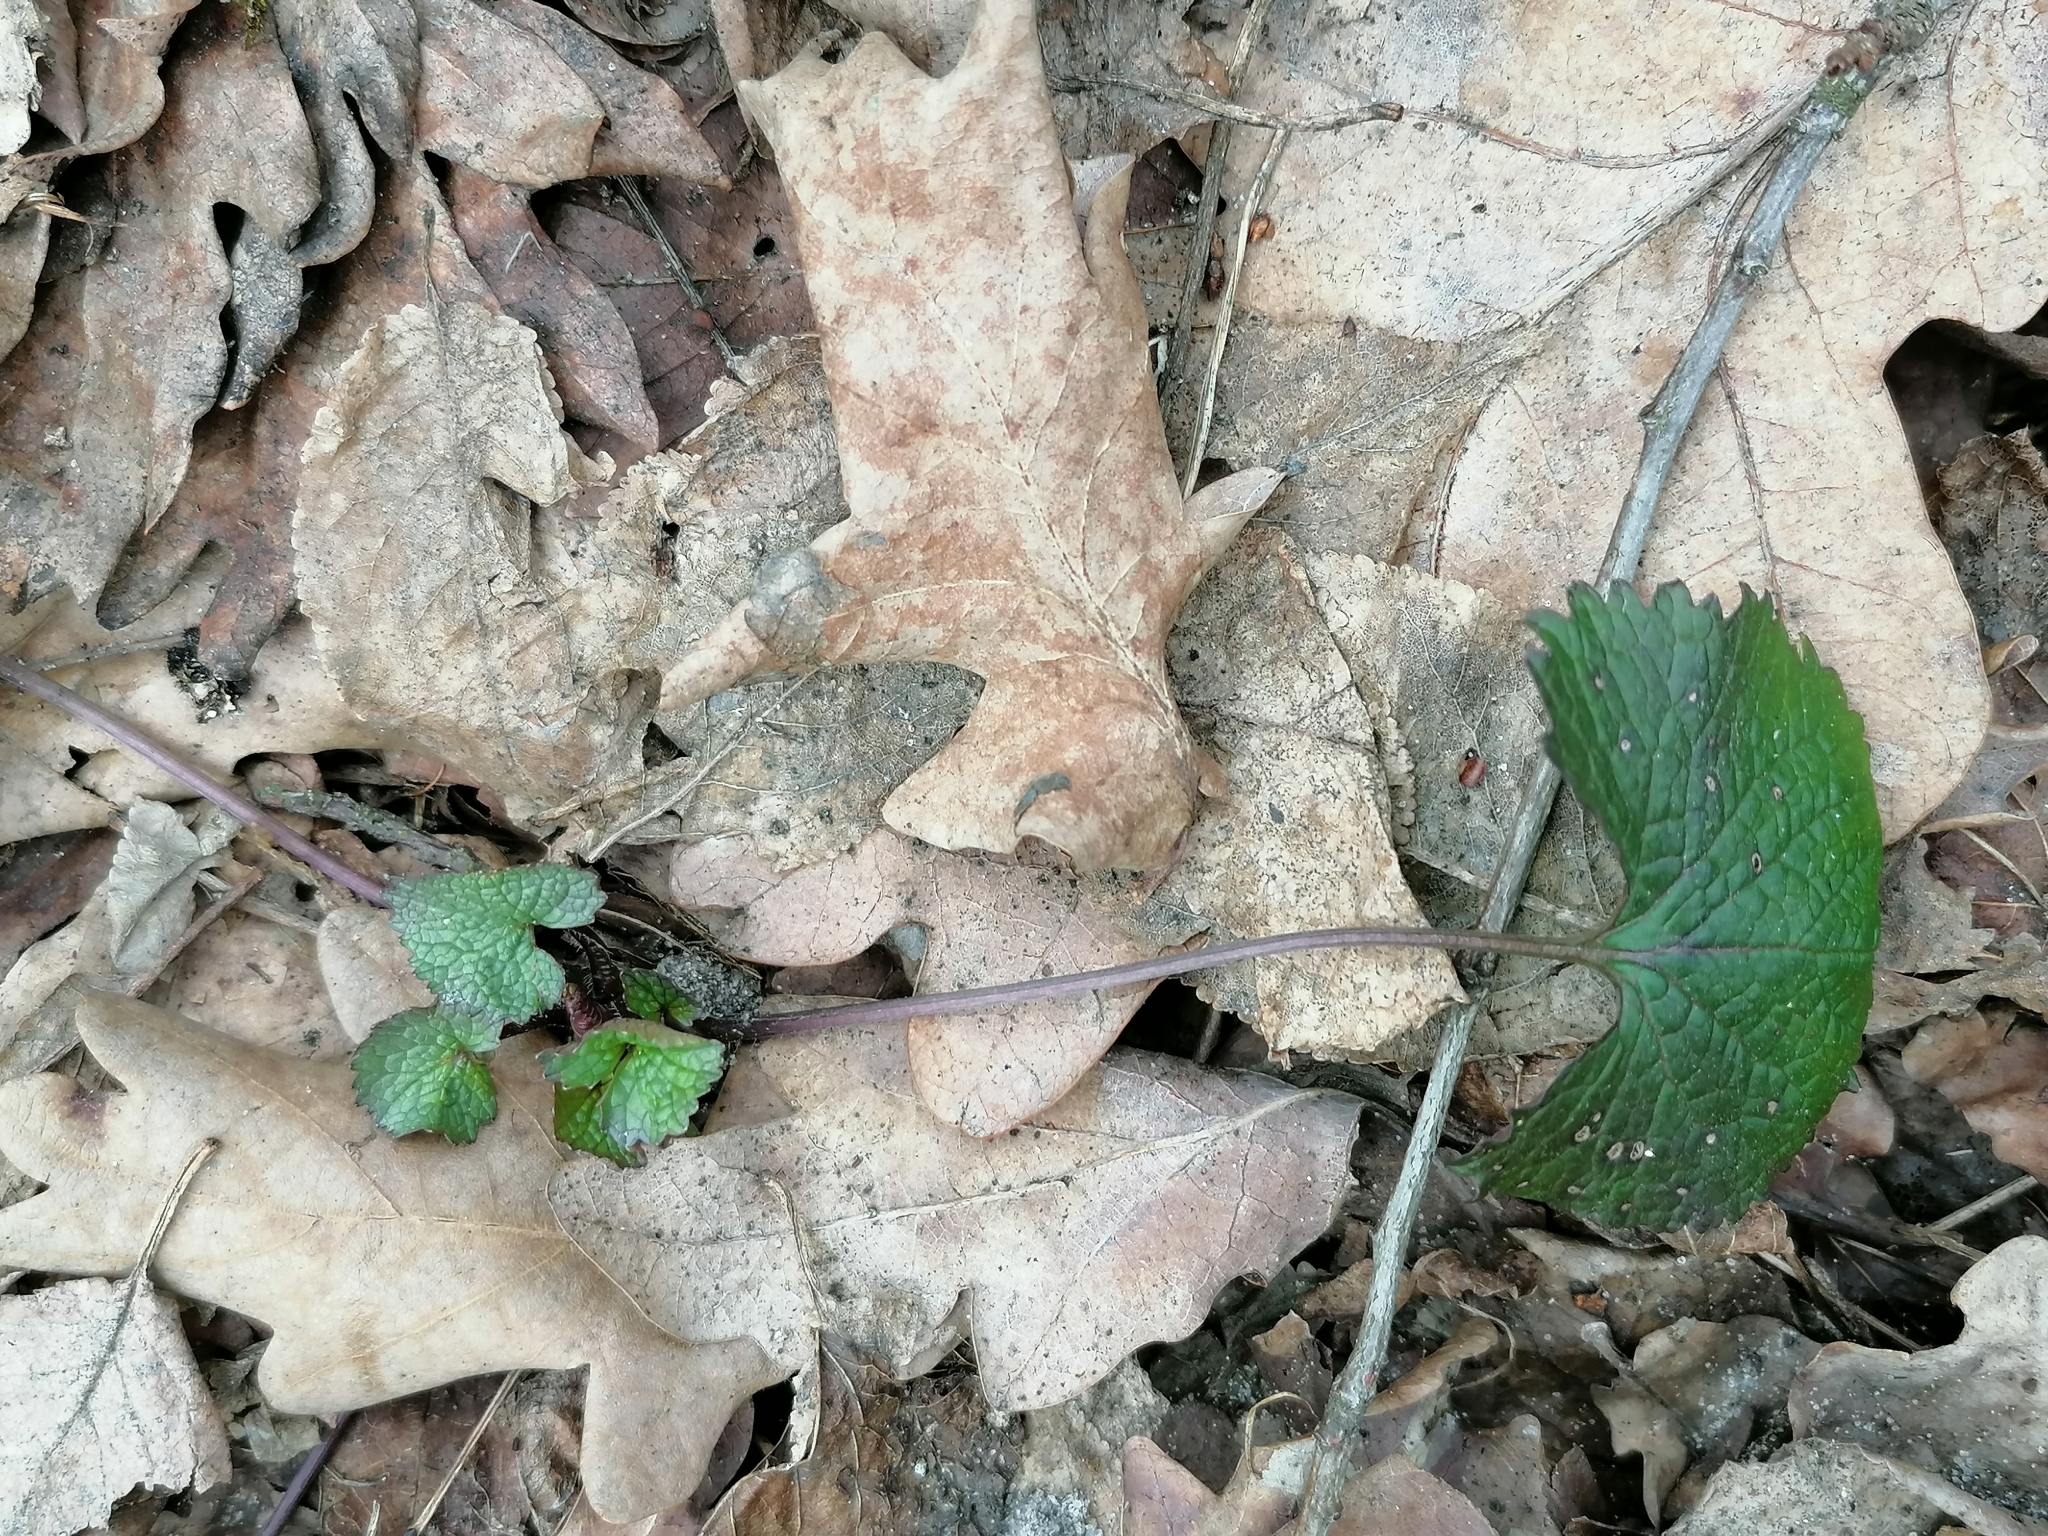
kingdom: Plantae
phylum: Tracheophyta
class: Magnoliopsida
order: Brassicales
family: Brassicaceae
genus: Alliaria
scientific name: Alliaria petiolata
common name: Garlic mustard
